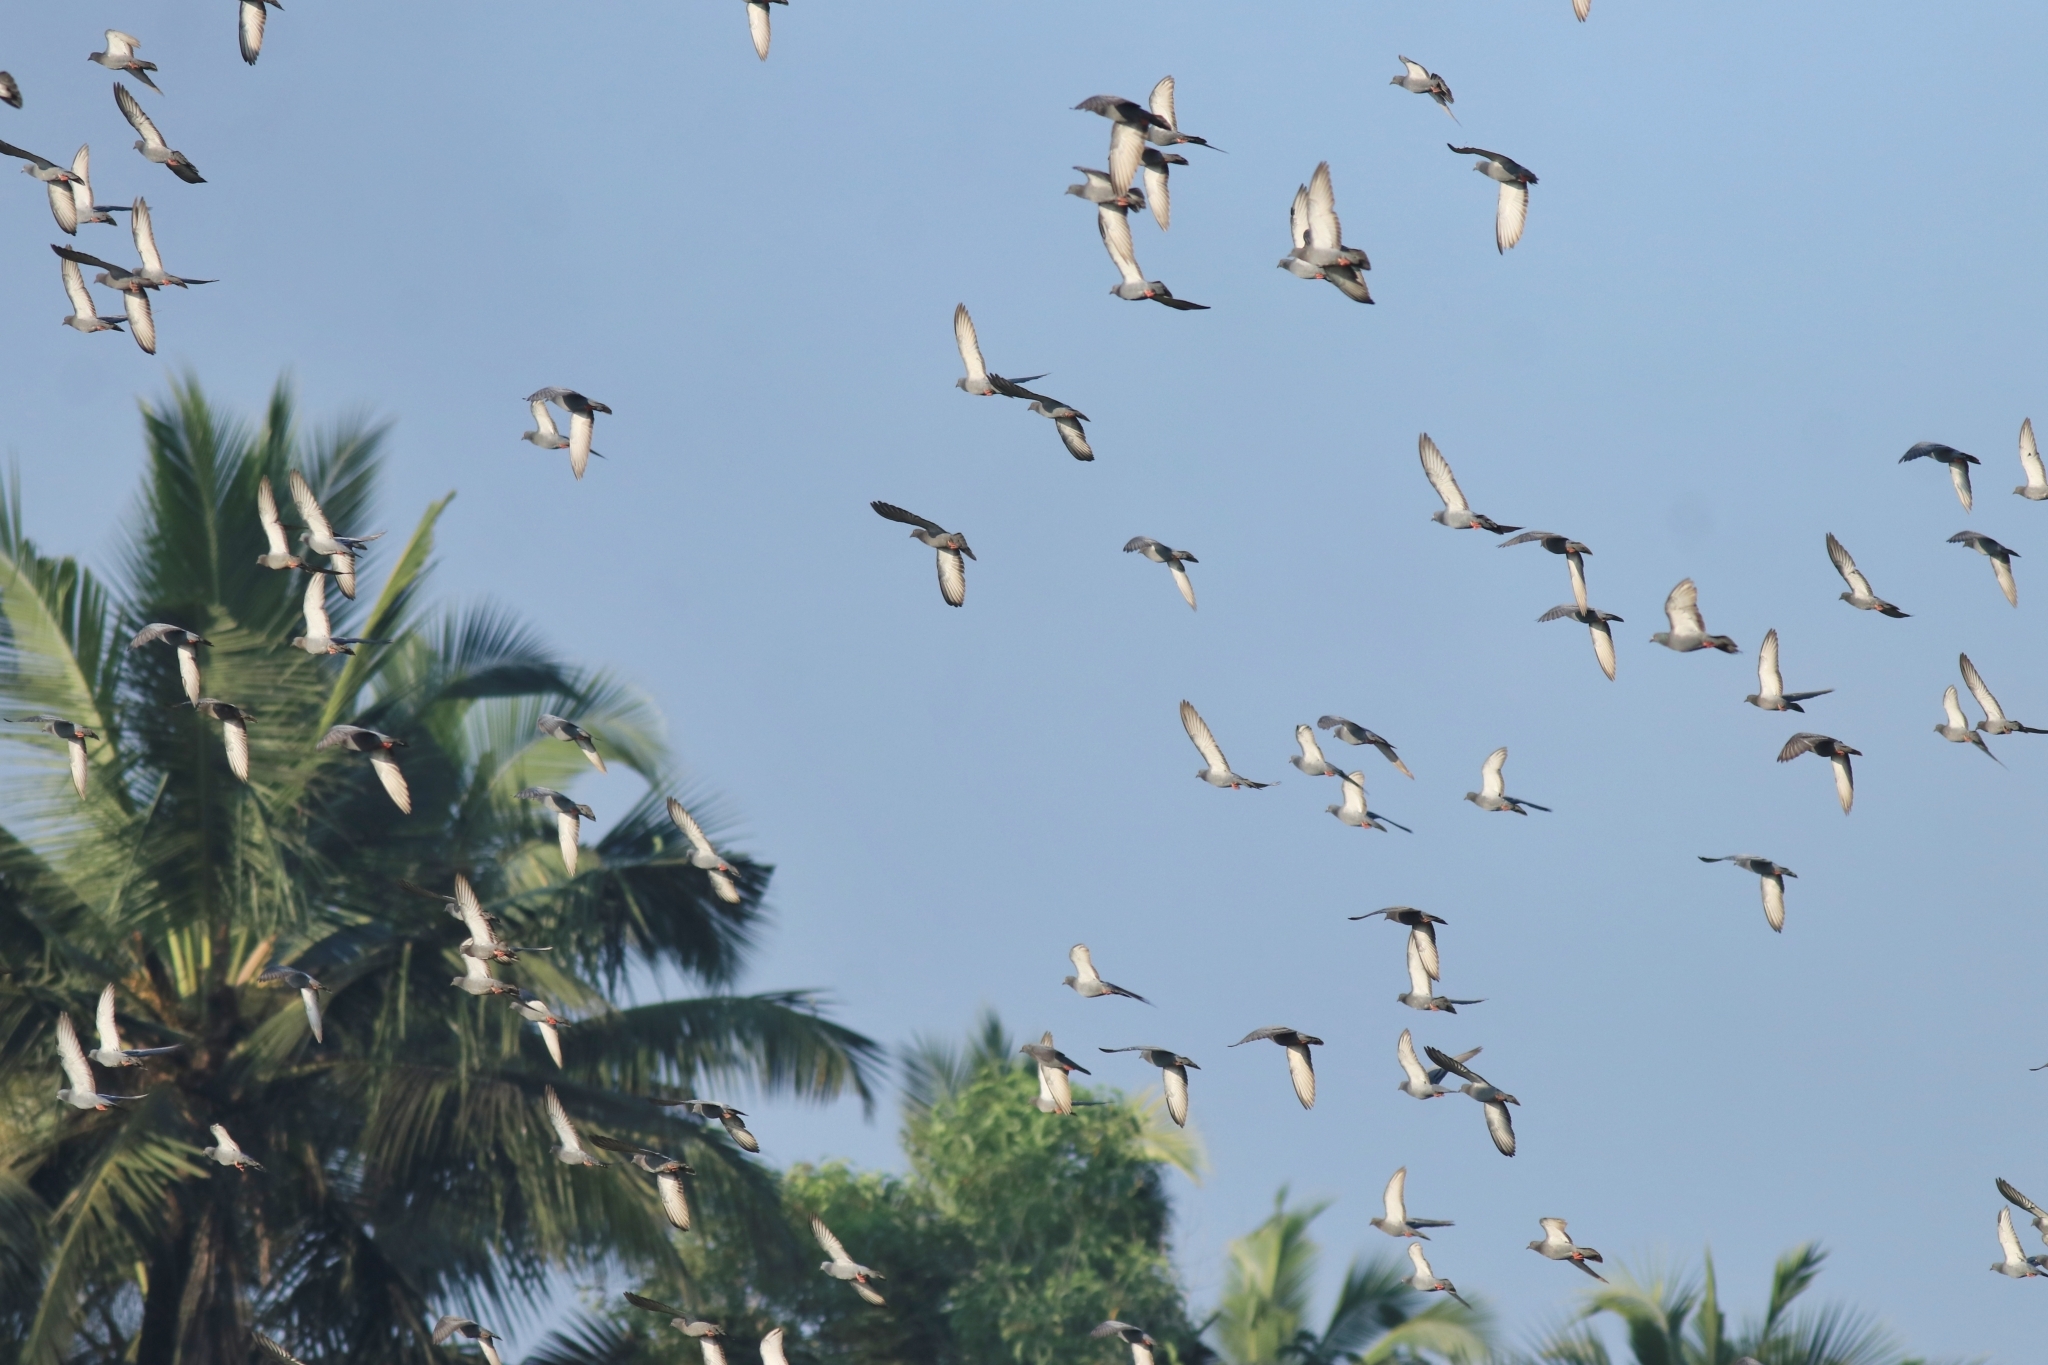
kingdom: Animalia
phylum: Chordata
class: Aves
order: Columbiformes
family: Columbidae
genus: Columba
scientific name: Columba livia
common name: Rock pigeon
